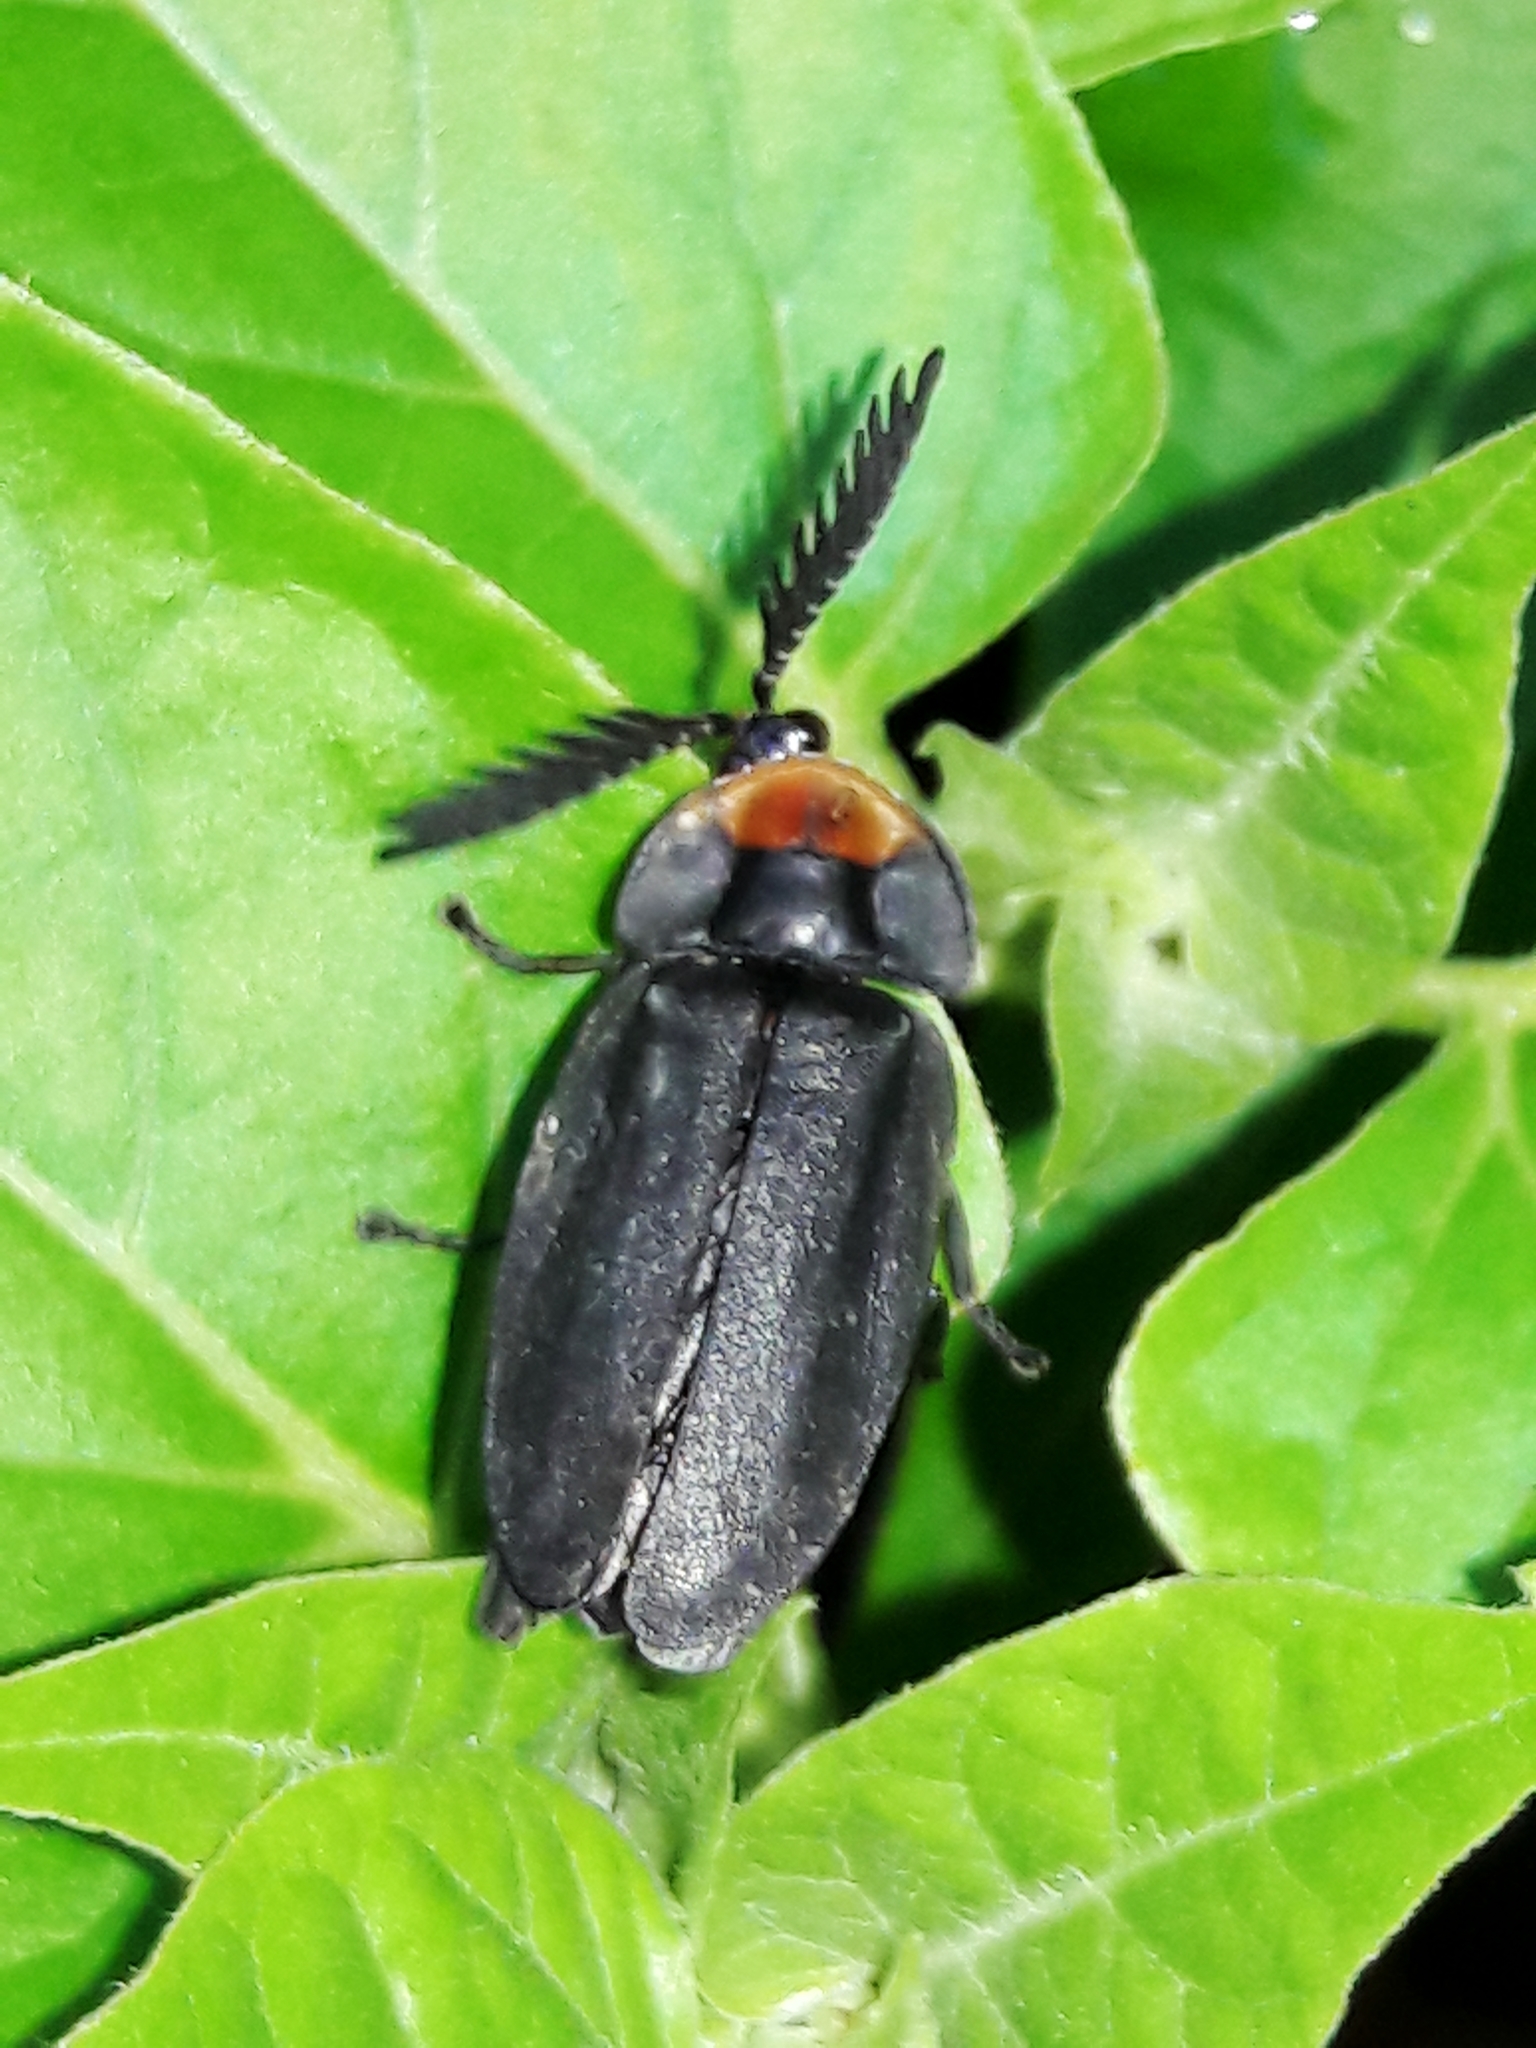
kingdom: Animalia
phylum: Arthropoda
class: Insecta
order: Coleoptera
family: Lampyridae
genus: Lucio
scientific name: Lucio blattinum
